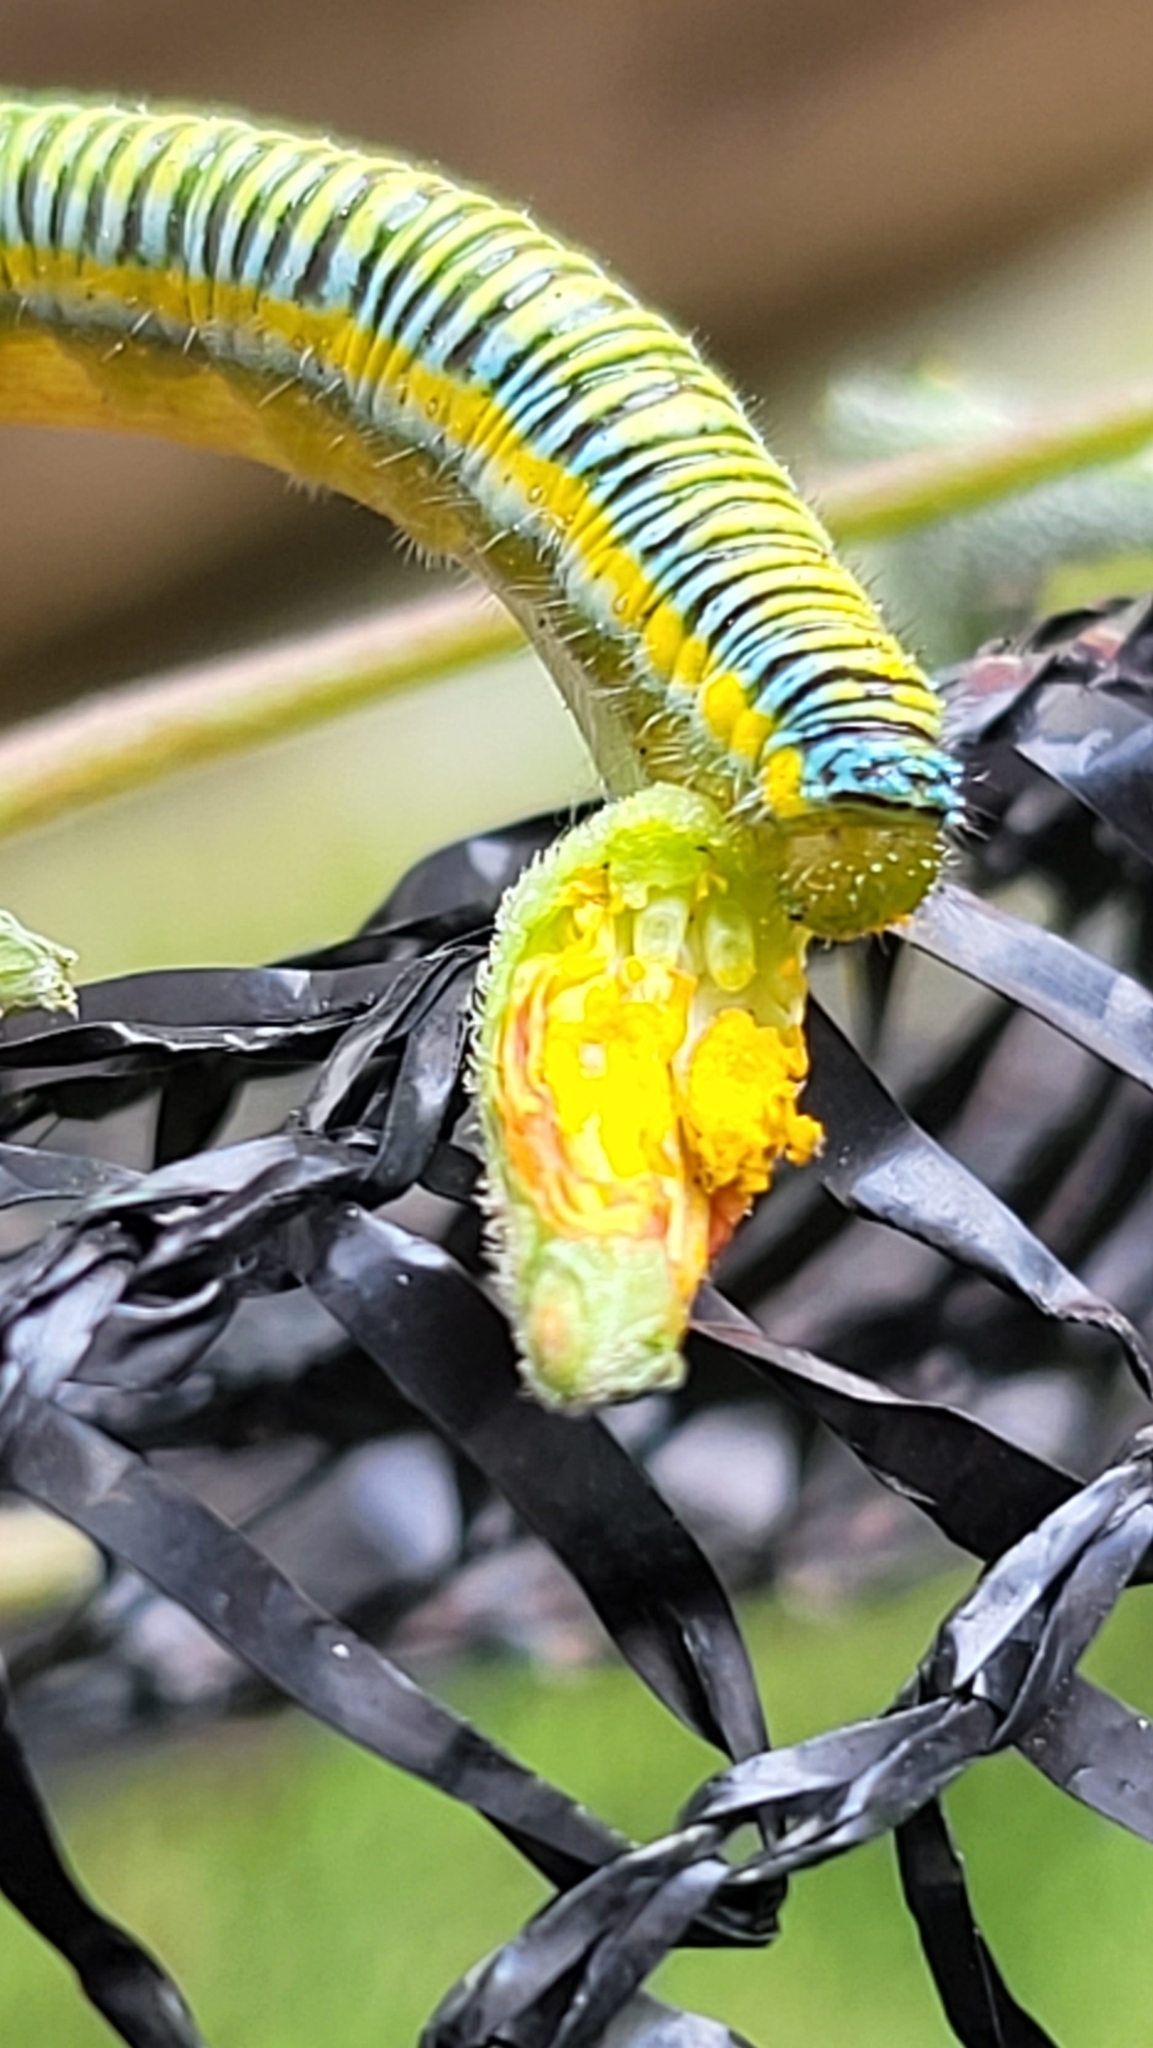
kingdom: Animalia
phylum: Arthropoda
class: Insecta
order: Lepidoptera
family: Pieridae
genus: Leptophobia
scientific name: Leptophobia aripa
